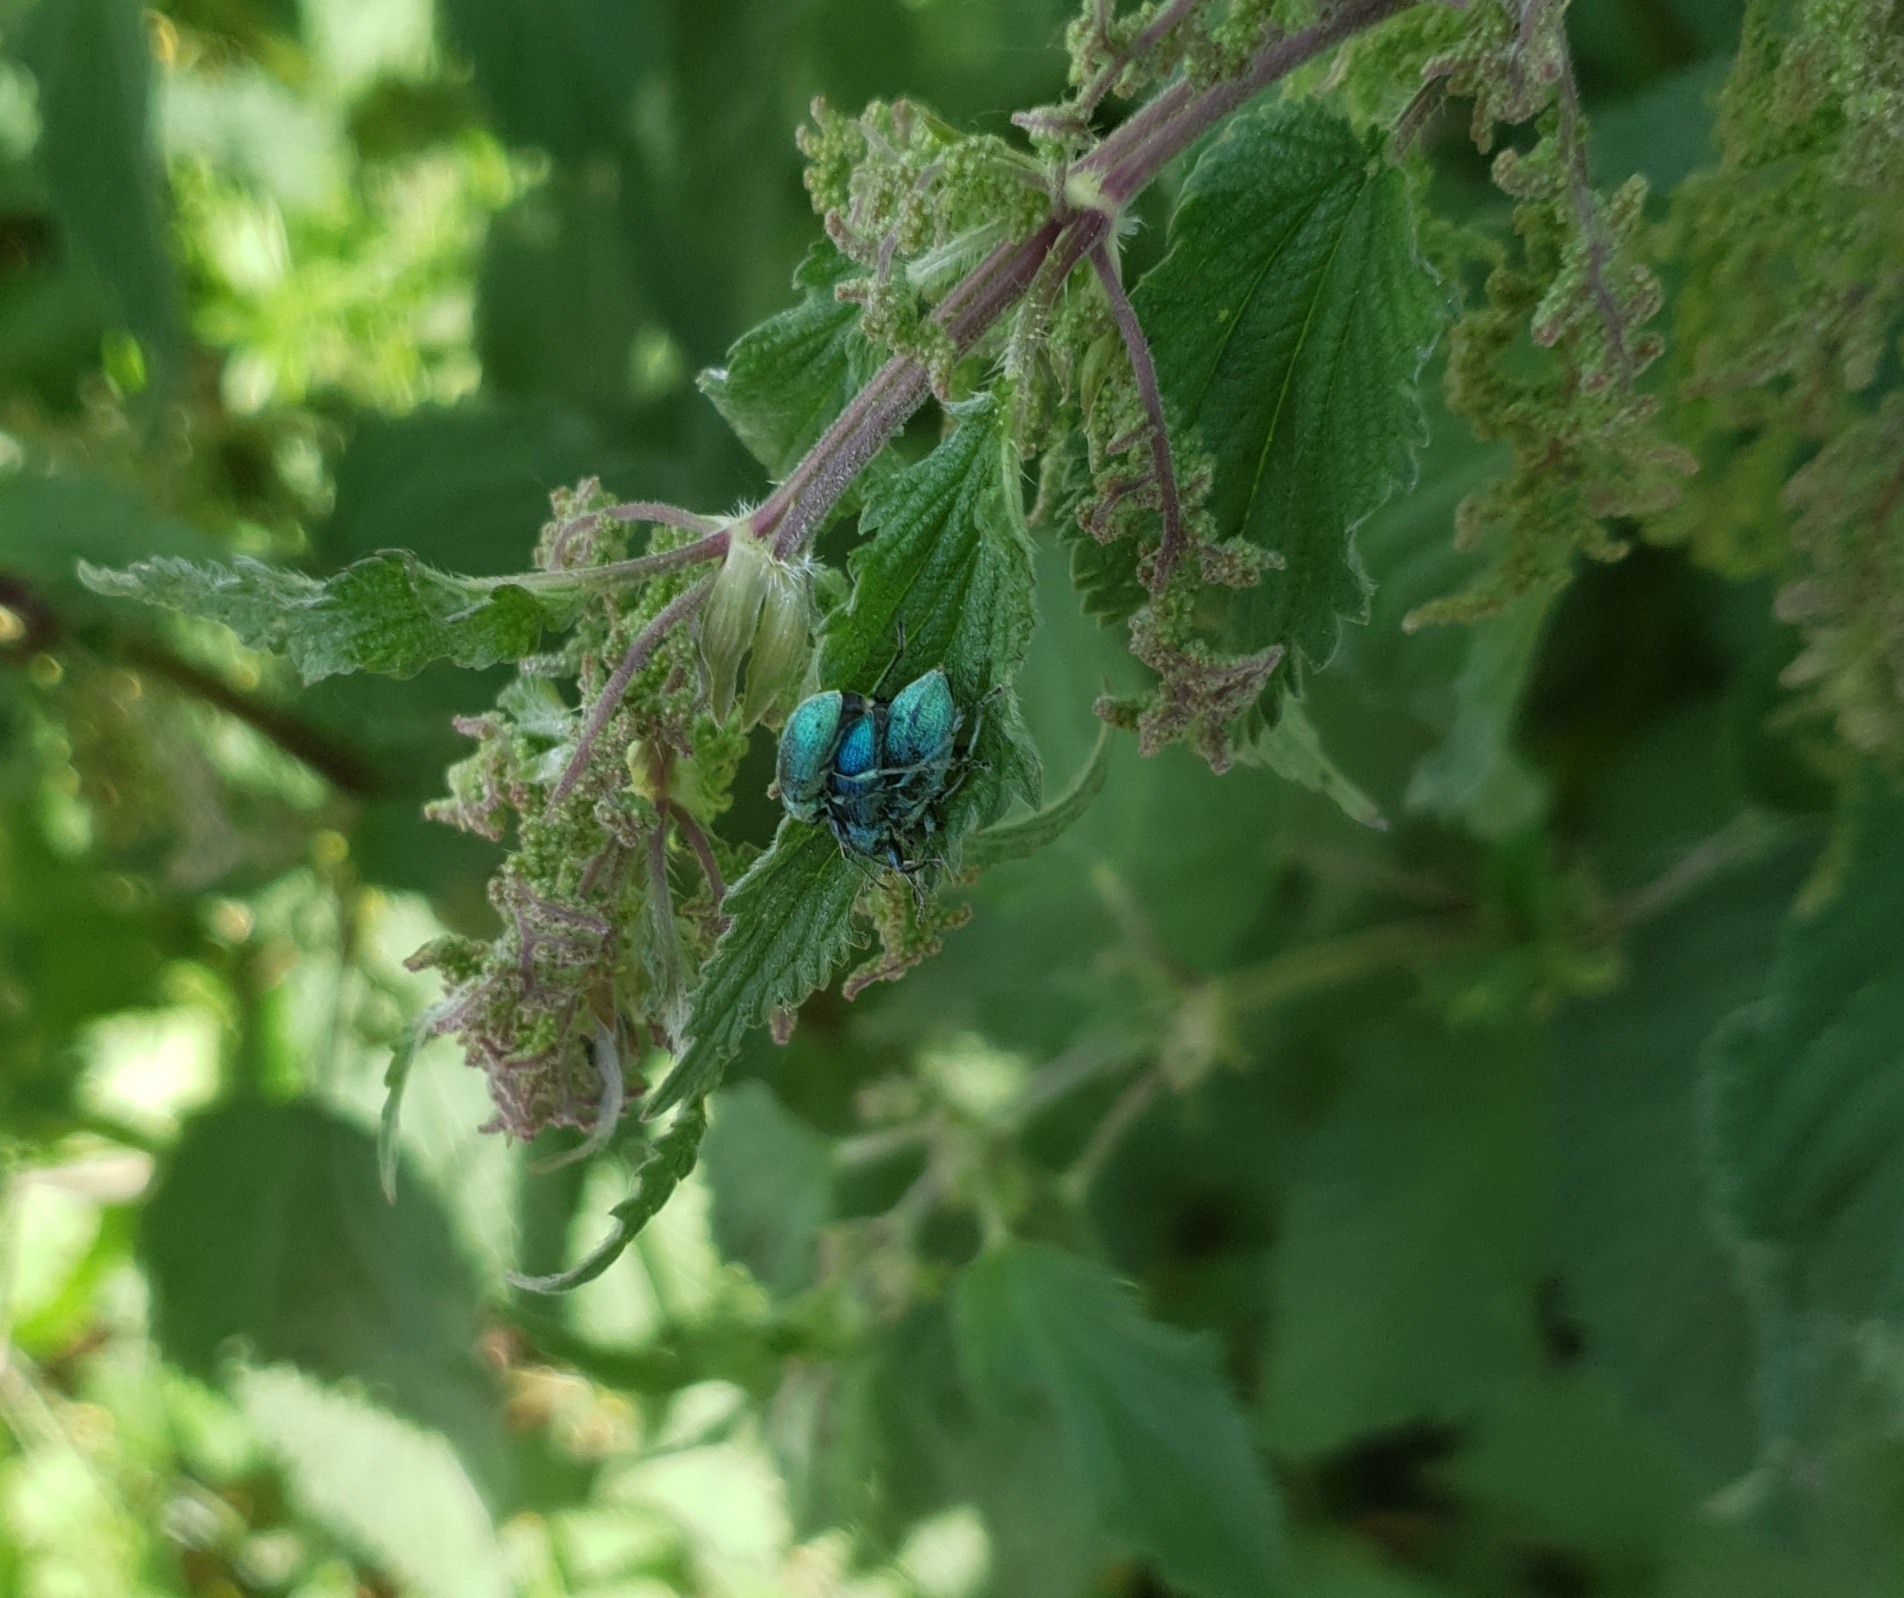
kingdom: Animalia
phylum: Arthropoda
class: Insecta
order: Coleoptera
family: Curculionidae
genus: Phyllobius
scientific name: Phyllobius pomaceus
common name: Green nettle weevil
